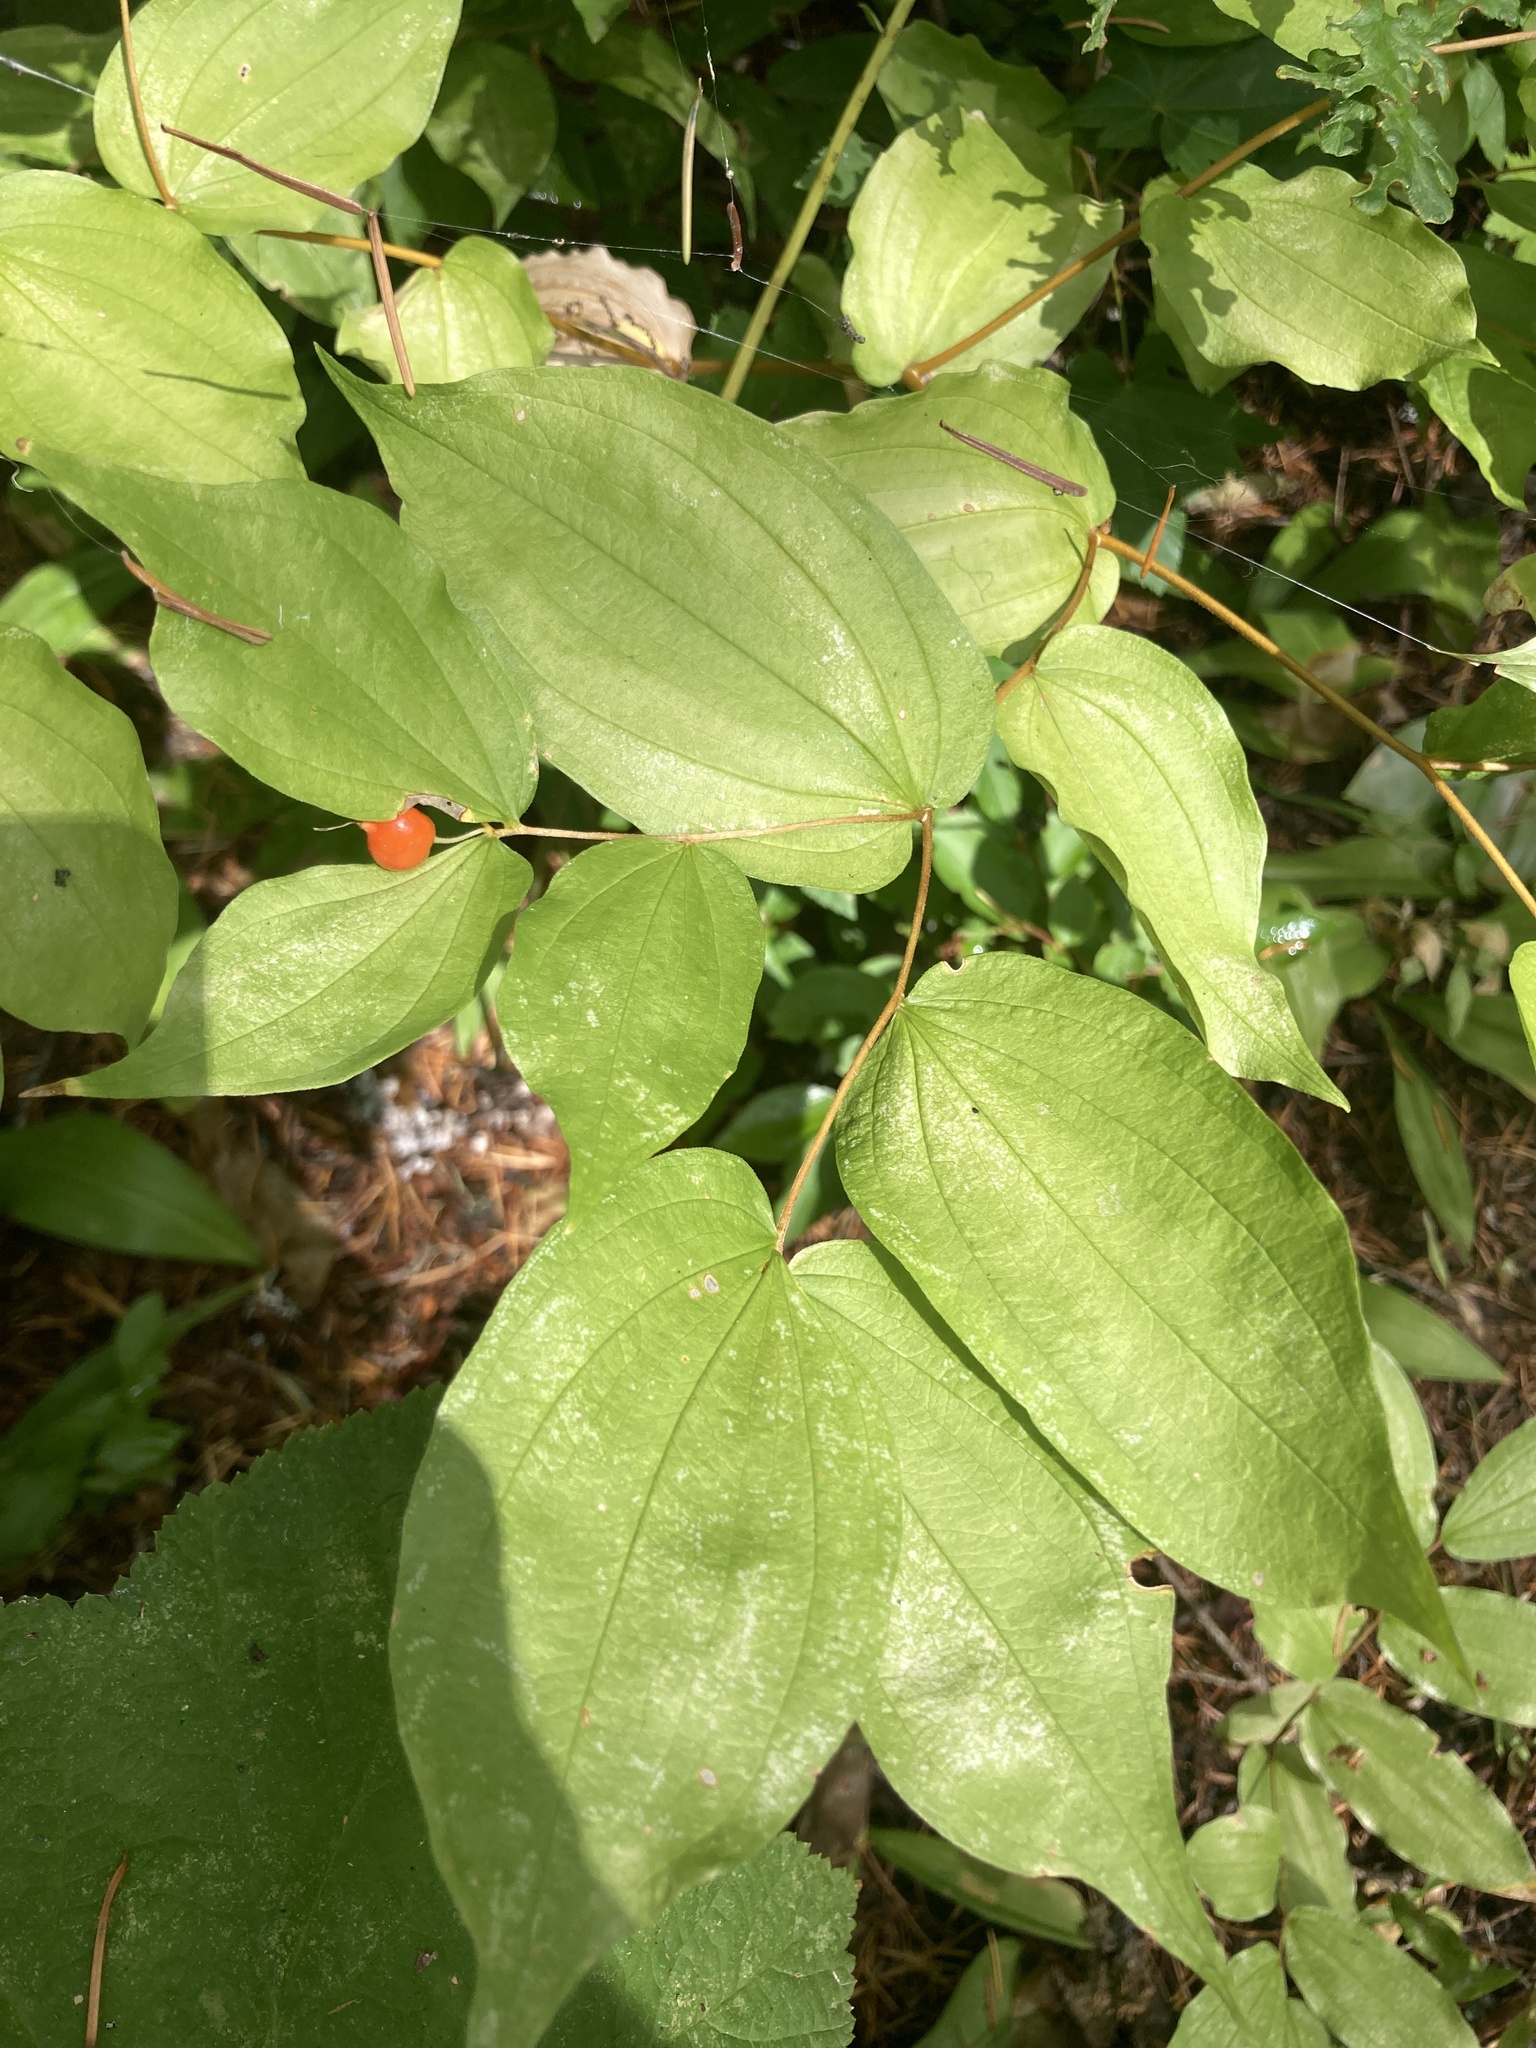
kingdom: Plantae
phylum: Tracheophyta
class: Liliopsida
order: Liliales
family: Liliaceae
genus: Prosartes
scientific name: Prosartes hookeri
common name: Fairy-bells
